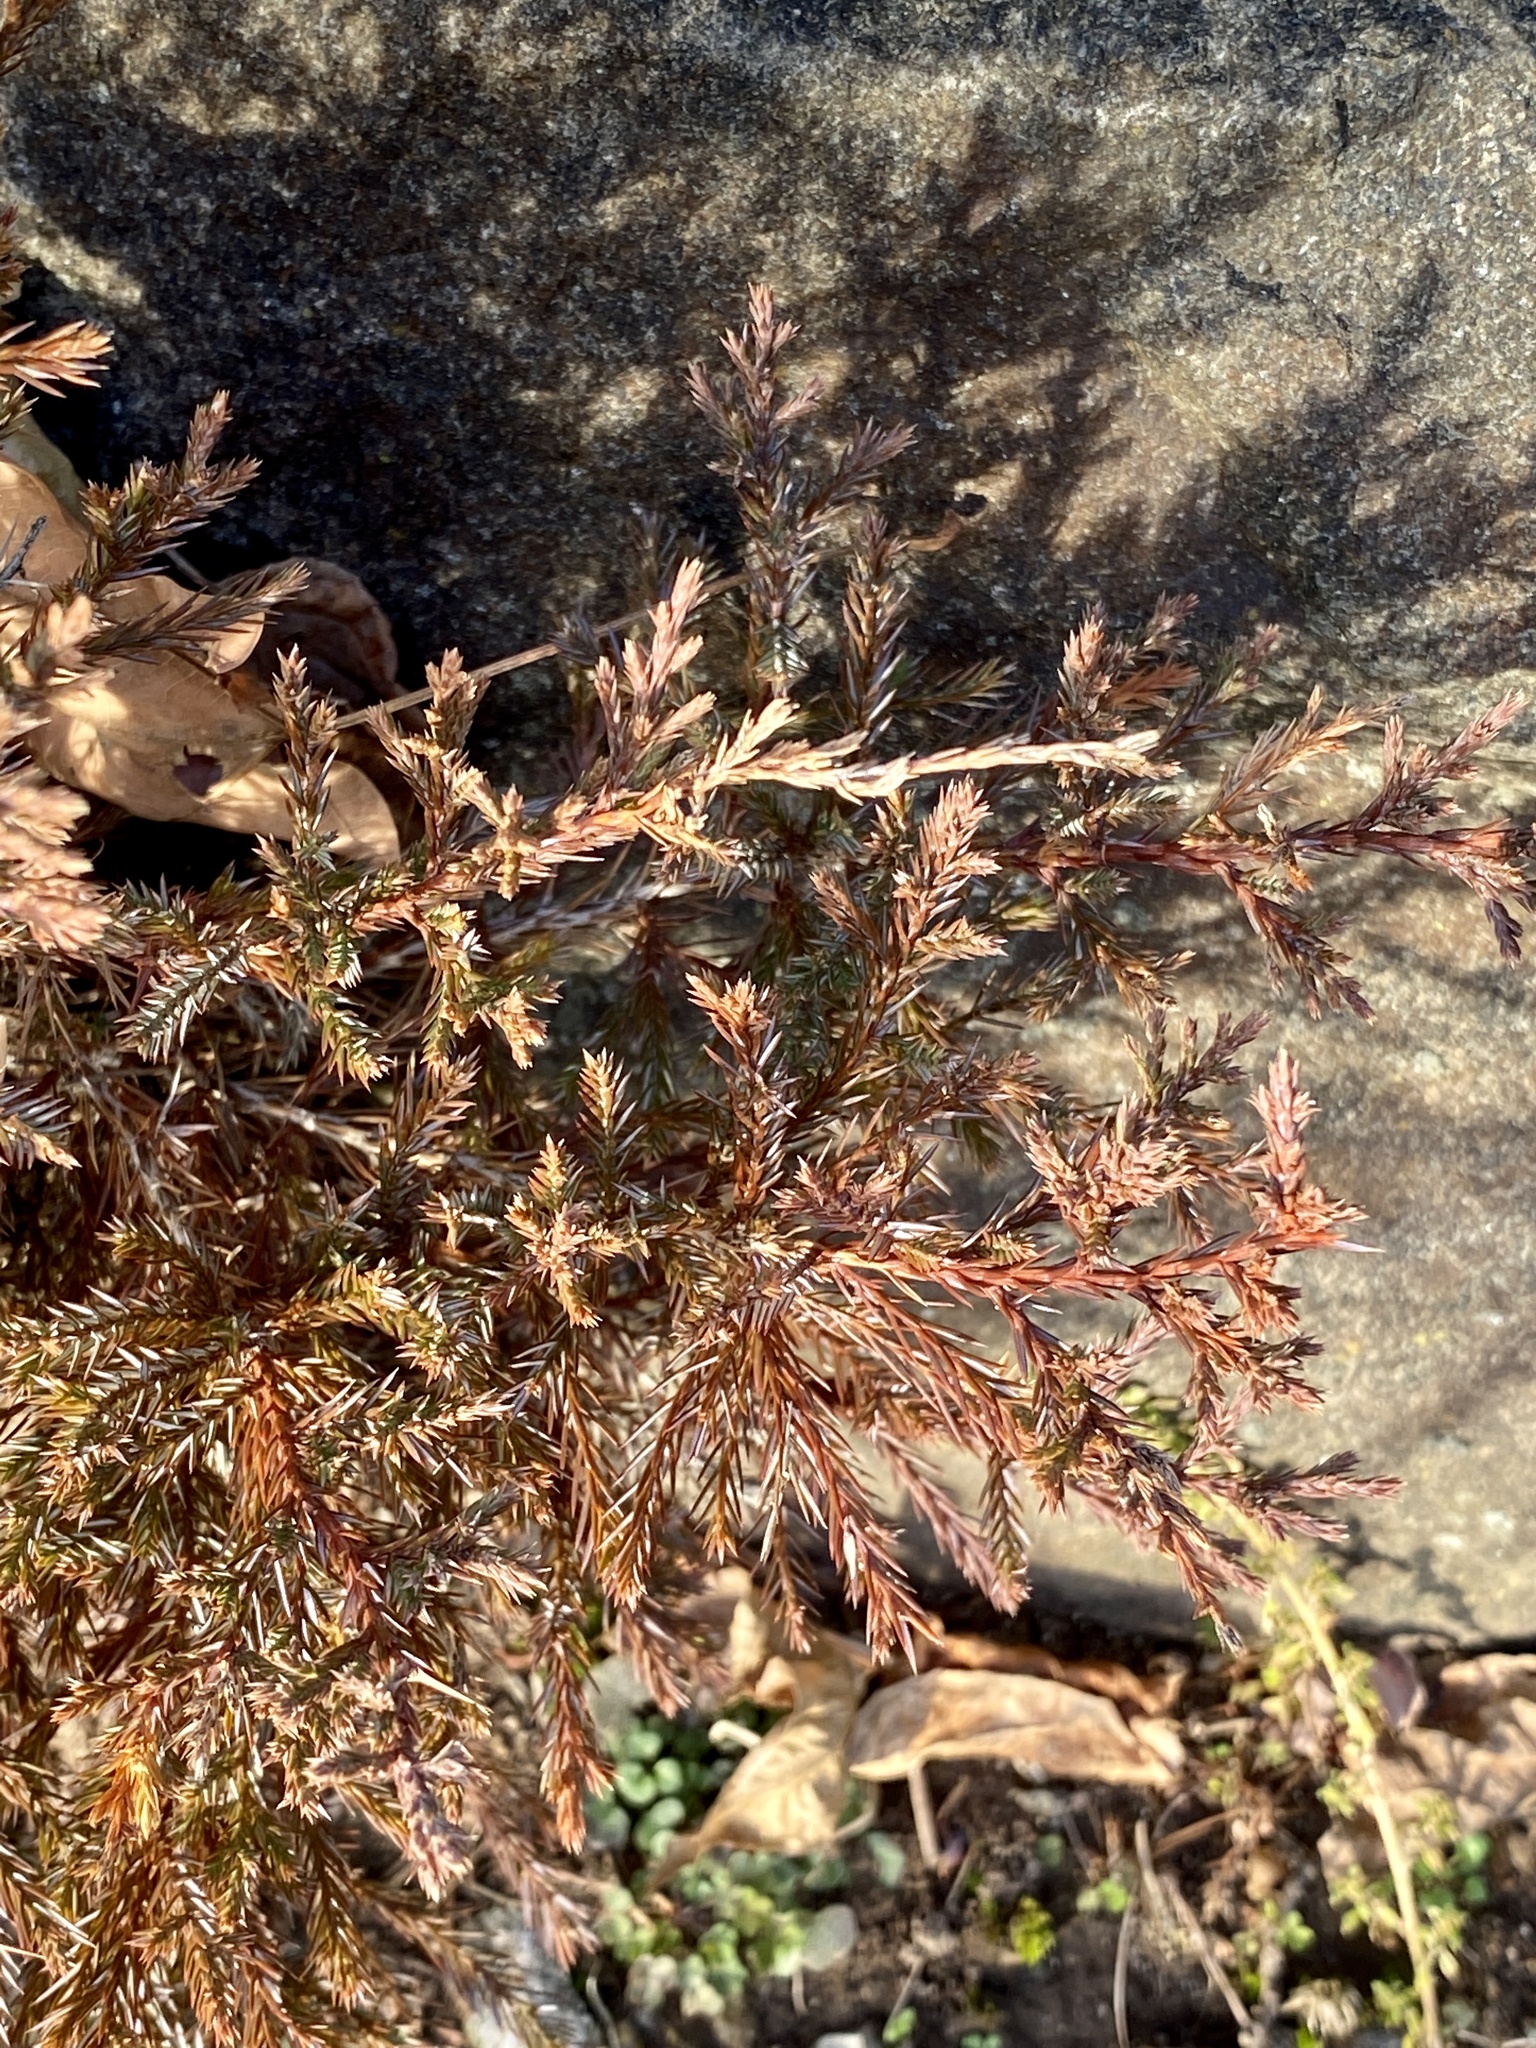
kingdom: Plantae
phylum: Tracheophyta
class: Pinopsida
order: Pinales
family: Cupressaceae
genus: Juniperus
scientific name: Juniperus virginiana
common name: Red juniper
